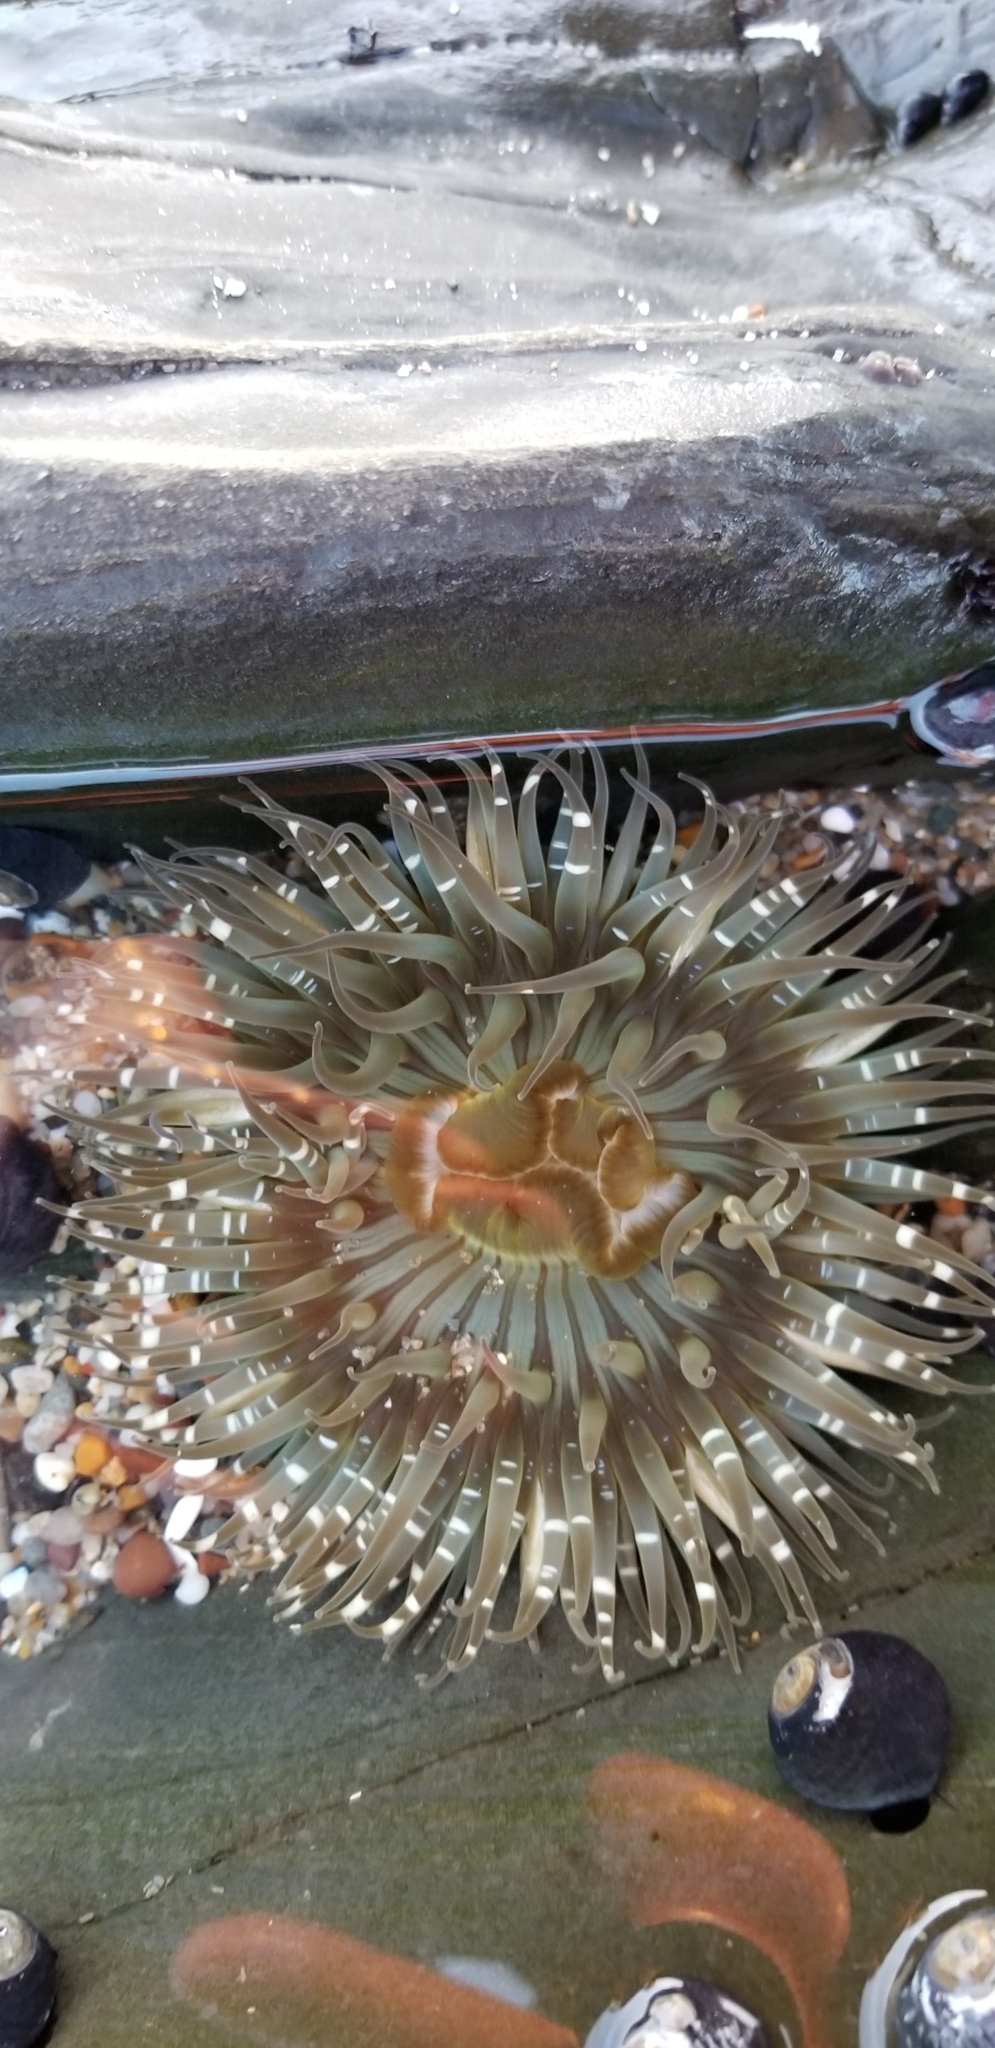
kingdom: Animalia
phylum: Cnidaria
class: Anthozoa
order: Actiniaria
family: Actiniidae
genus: Anthopleura
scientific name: Anthopleura sola
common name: Sun anemone
